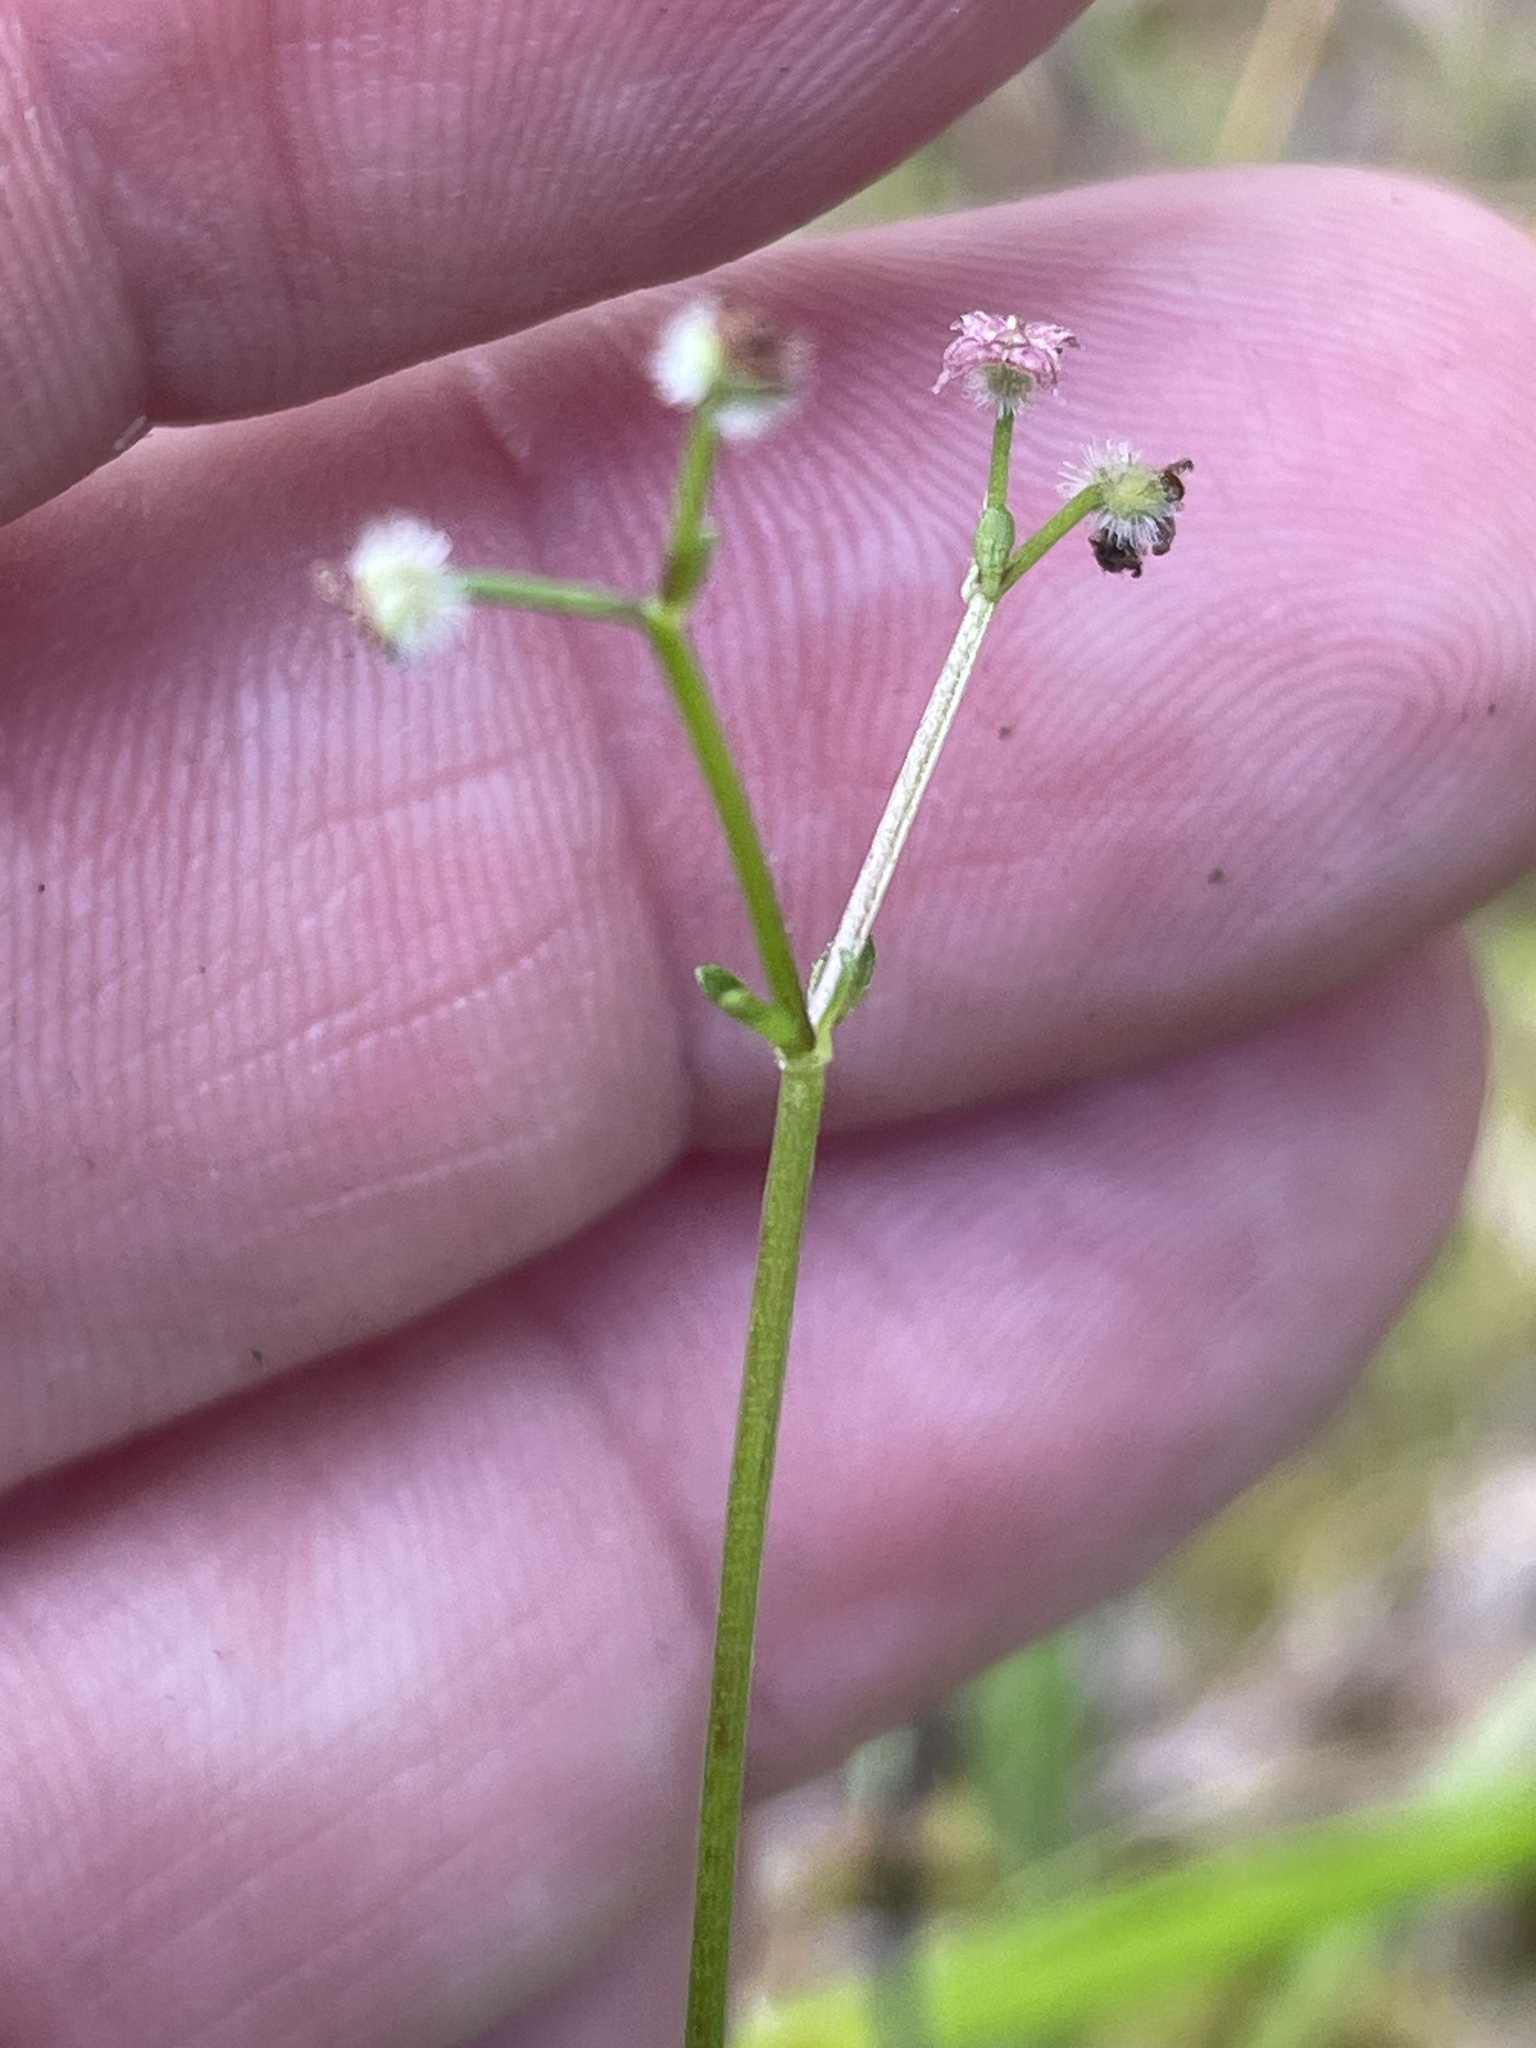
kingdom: Plantae
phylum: Tracheophyta
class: Magnoliopsida
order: Gentianales
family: Rubiaceae
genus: Galium
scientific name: Galium pilosum
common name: Hairy bedstraw
